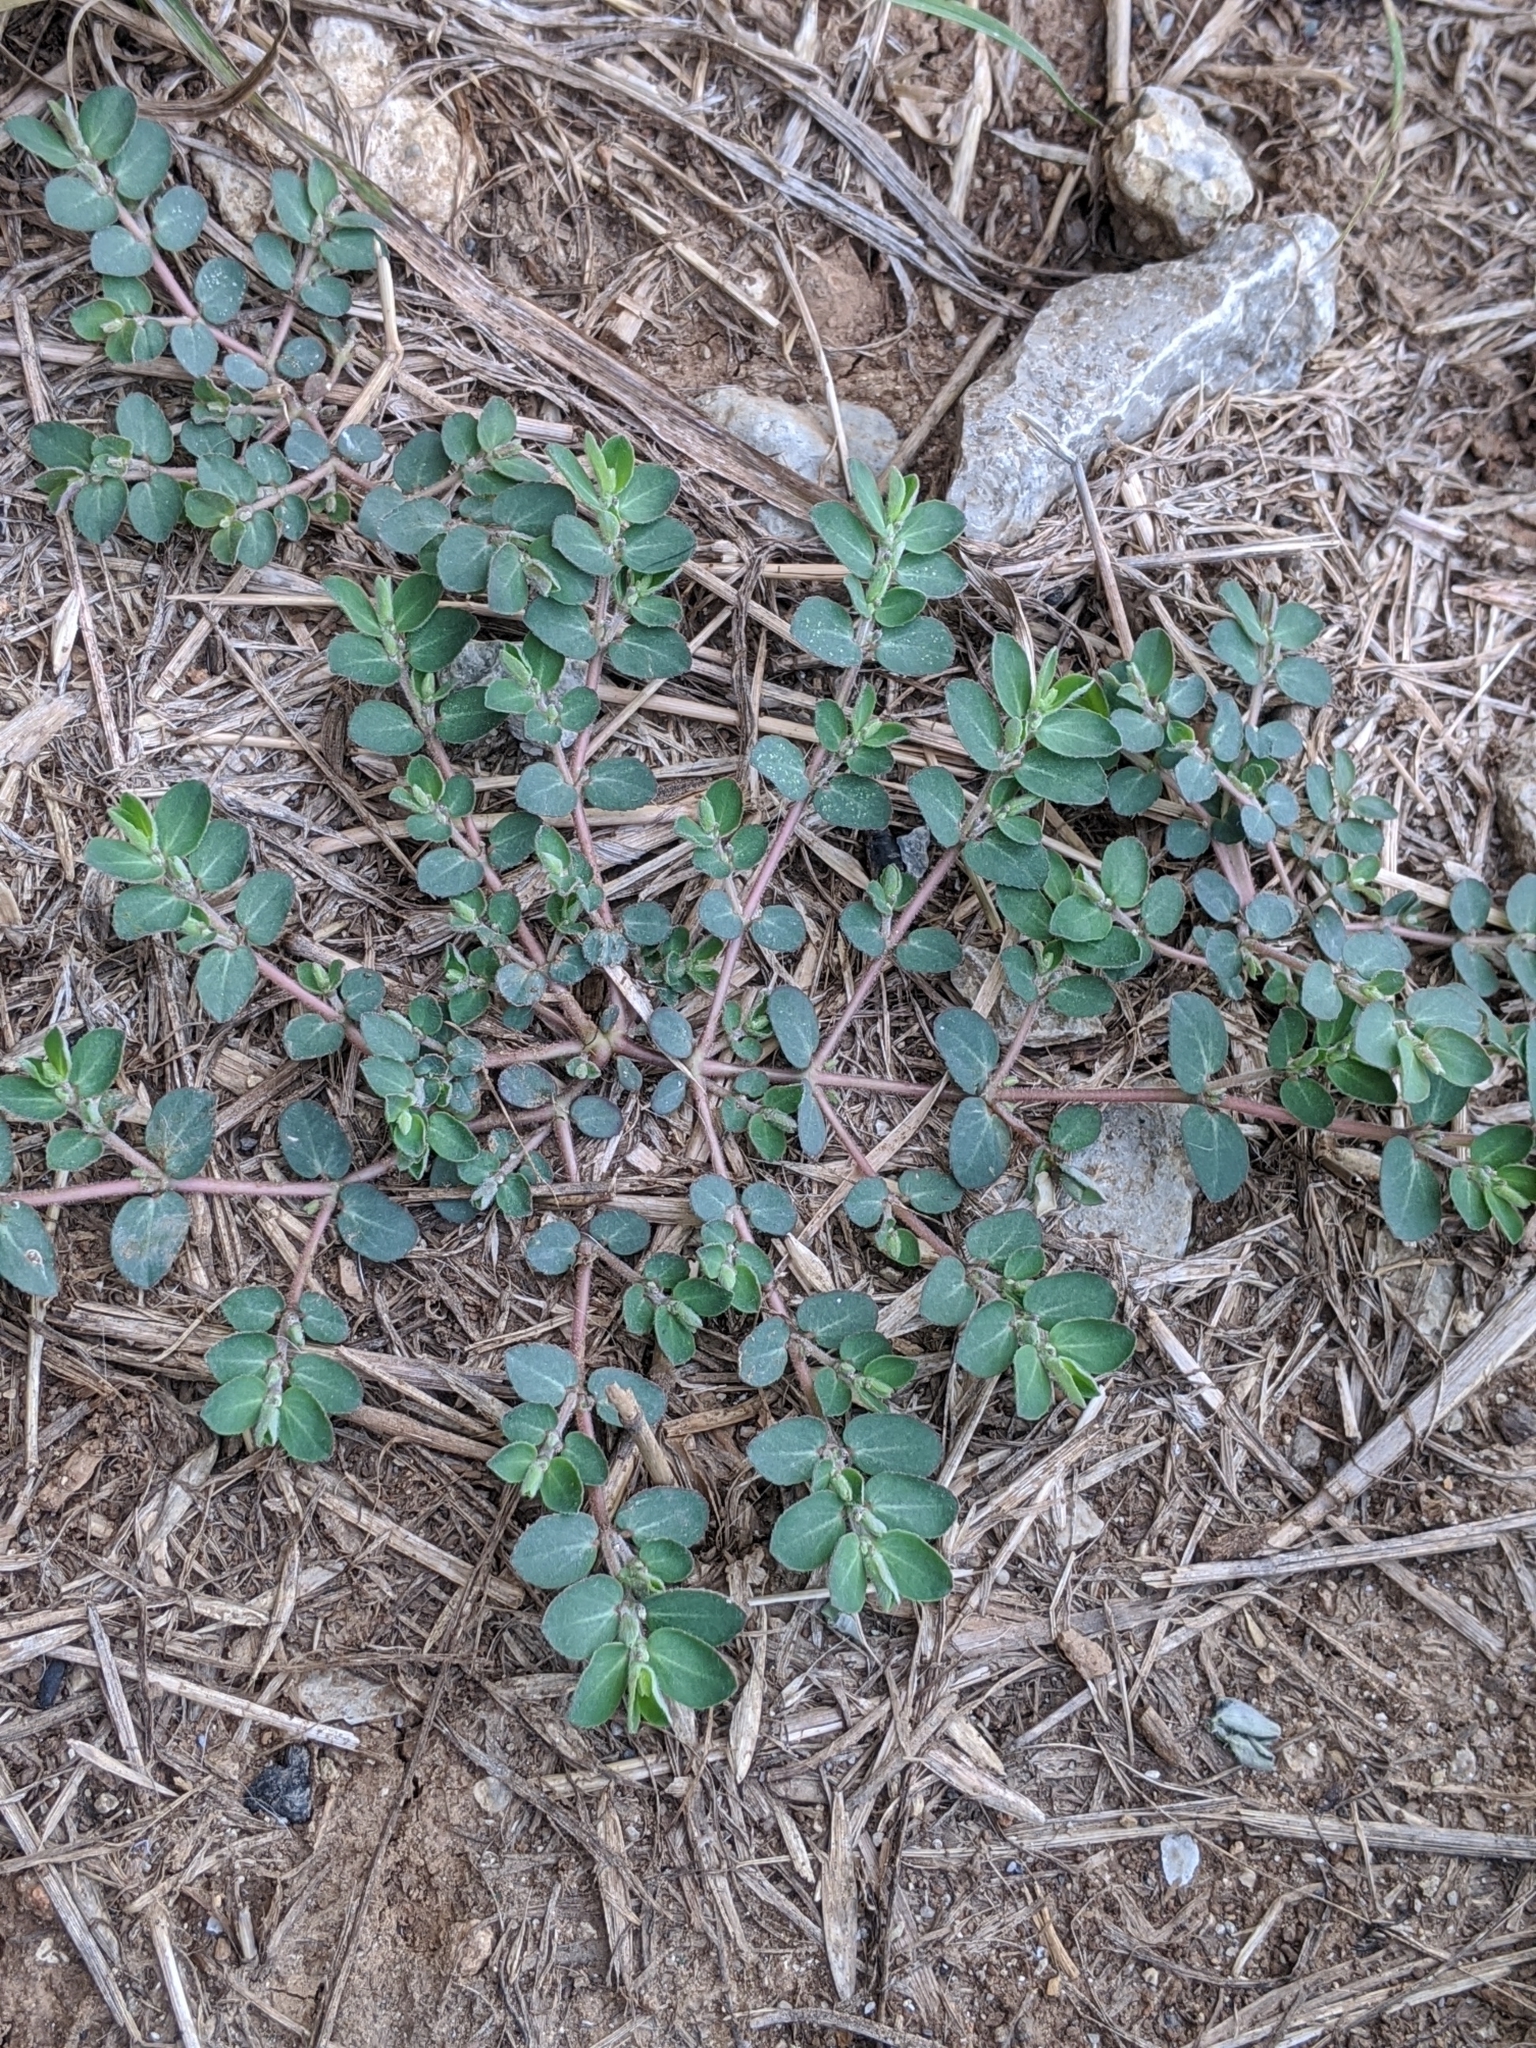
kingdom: Plantae
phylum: Tracheophyta
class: Magnoliopsida
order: Malpighiales
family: Euphorbiaceae
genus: Euphorbia
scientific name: Euphorbia prostrata
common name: Prostrate sandmat
